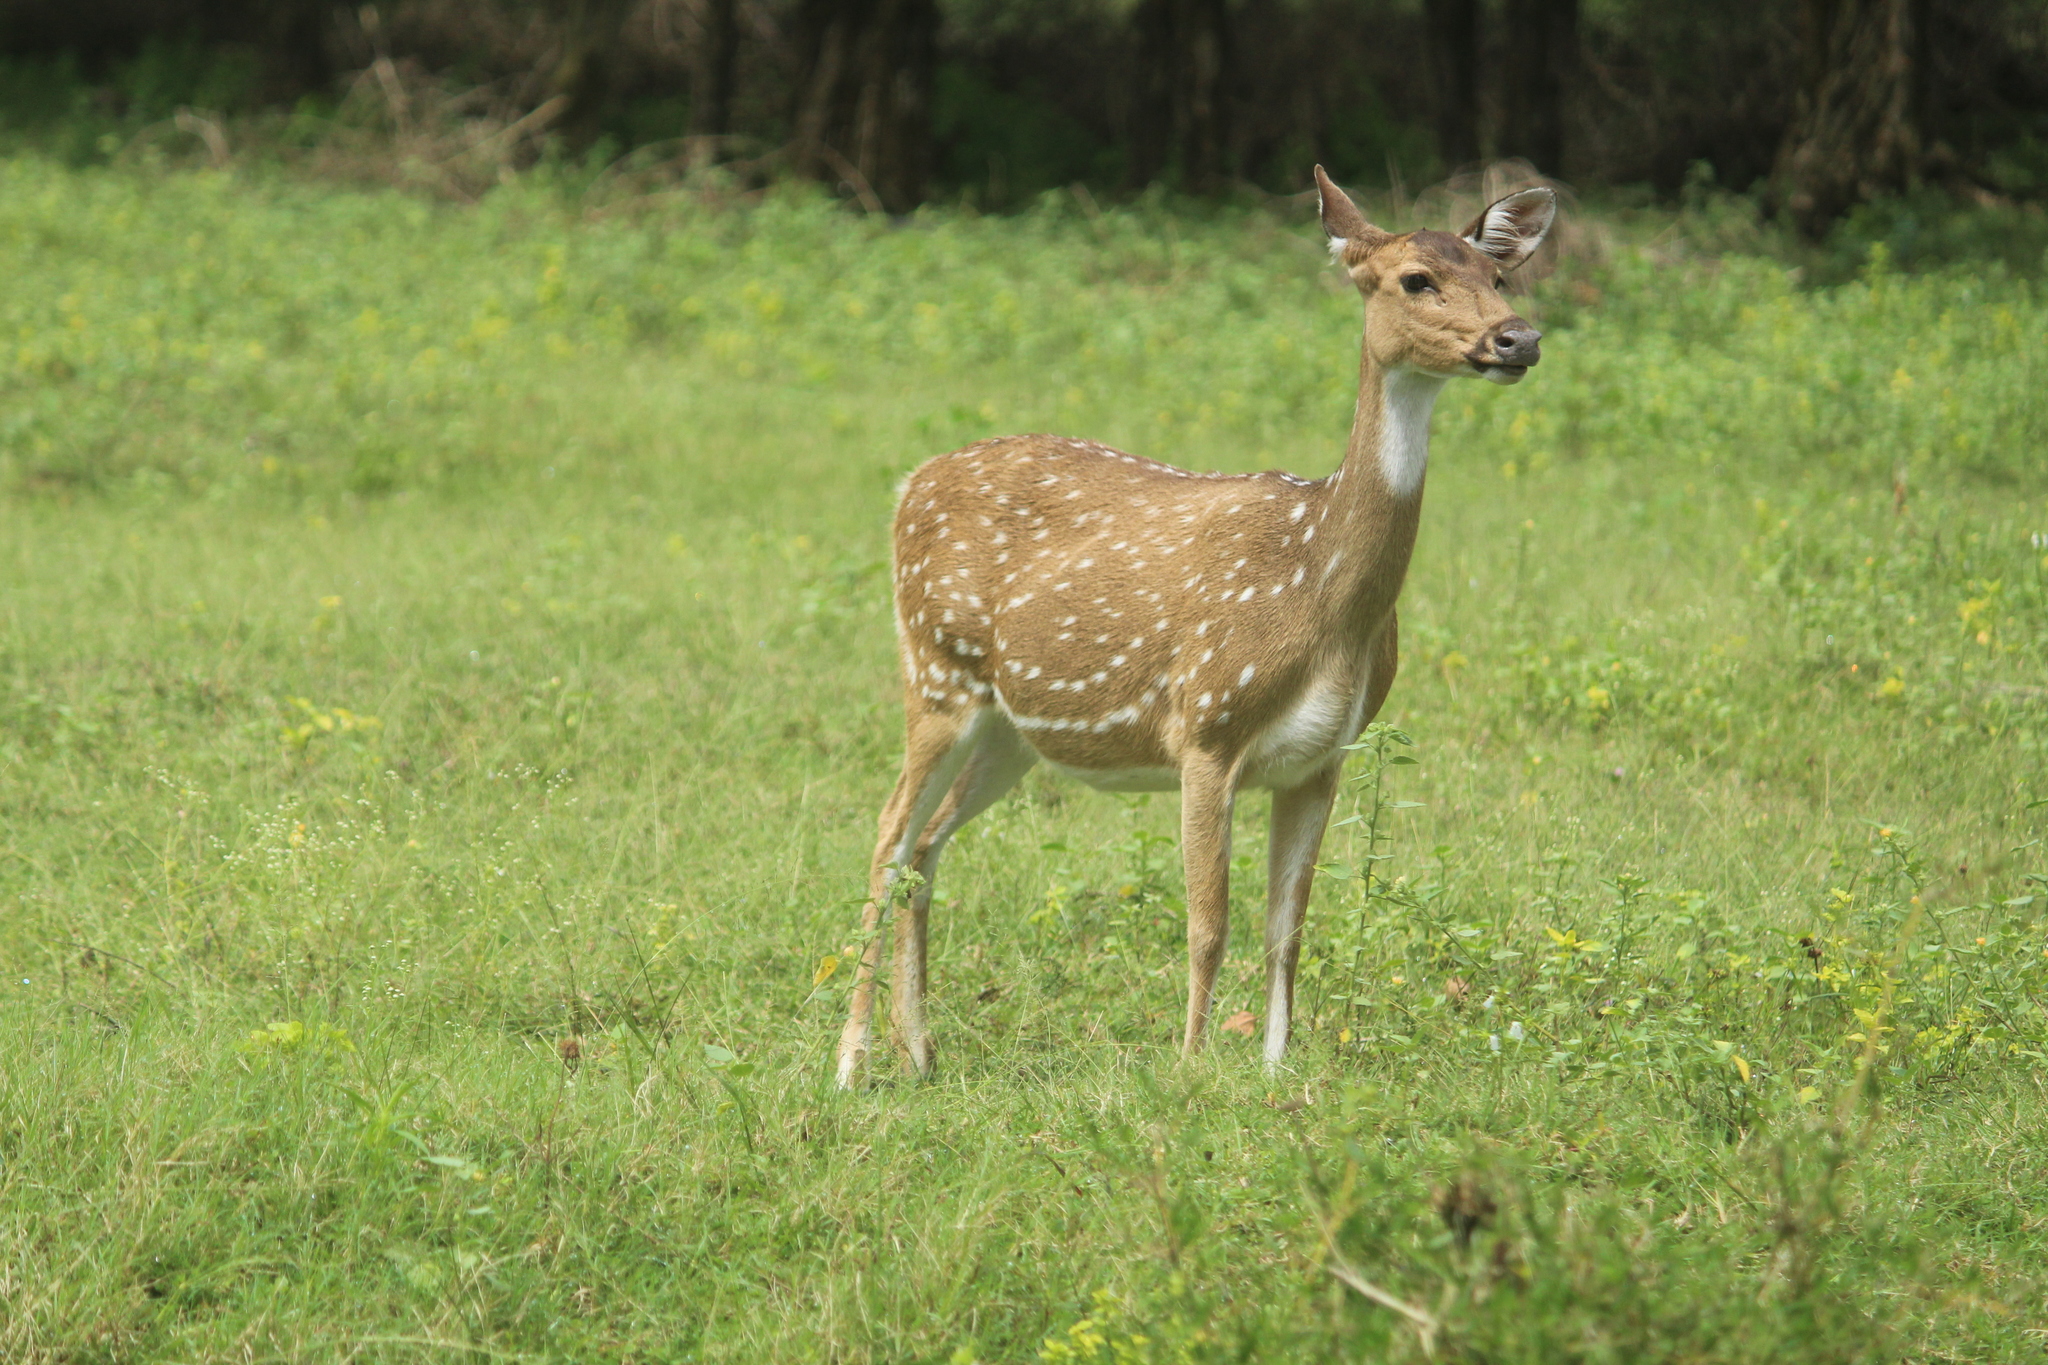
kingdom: Animalia
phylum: Chordata
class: Mammalia
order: Artiodactyla
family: Cervidae
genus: Axis
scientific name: Axis axis
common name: Chital
